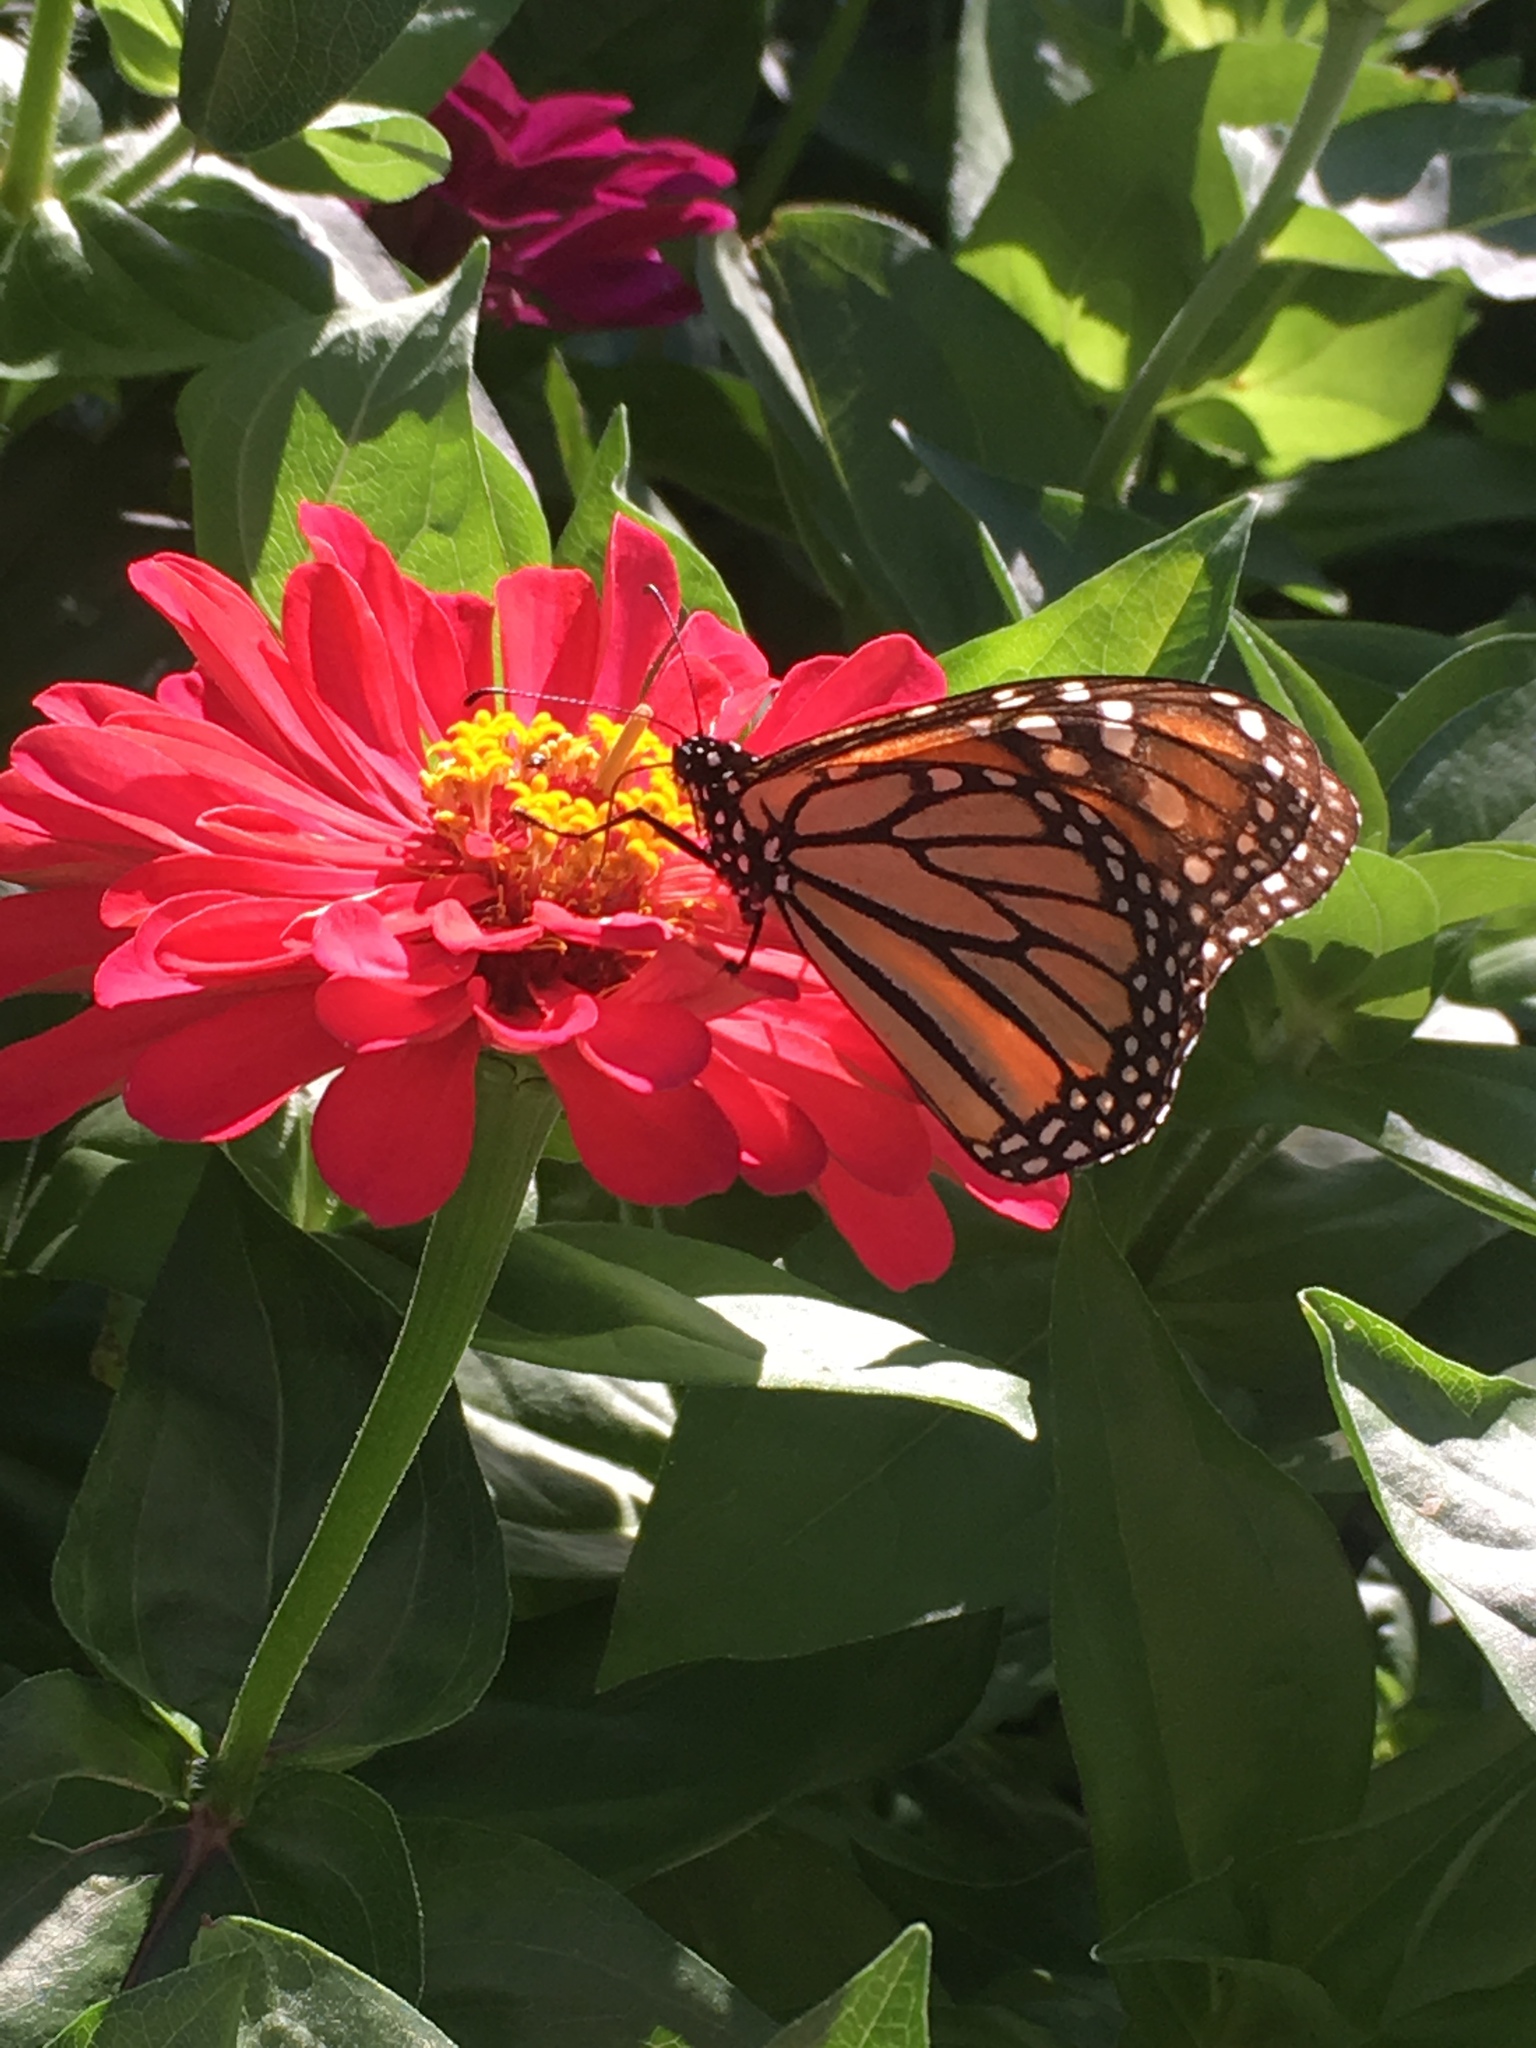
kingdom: Animalia
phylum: Arthropoda
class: Insecta
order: Lepidoptera
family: Nymphalidae
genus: Danaus
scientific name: Danaus plexippus
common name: Monarch
